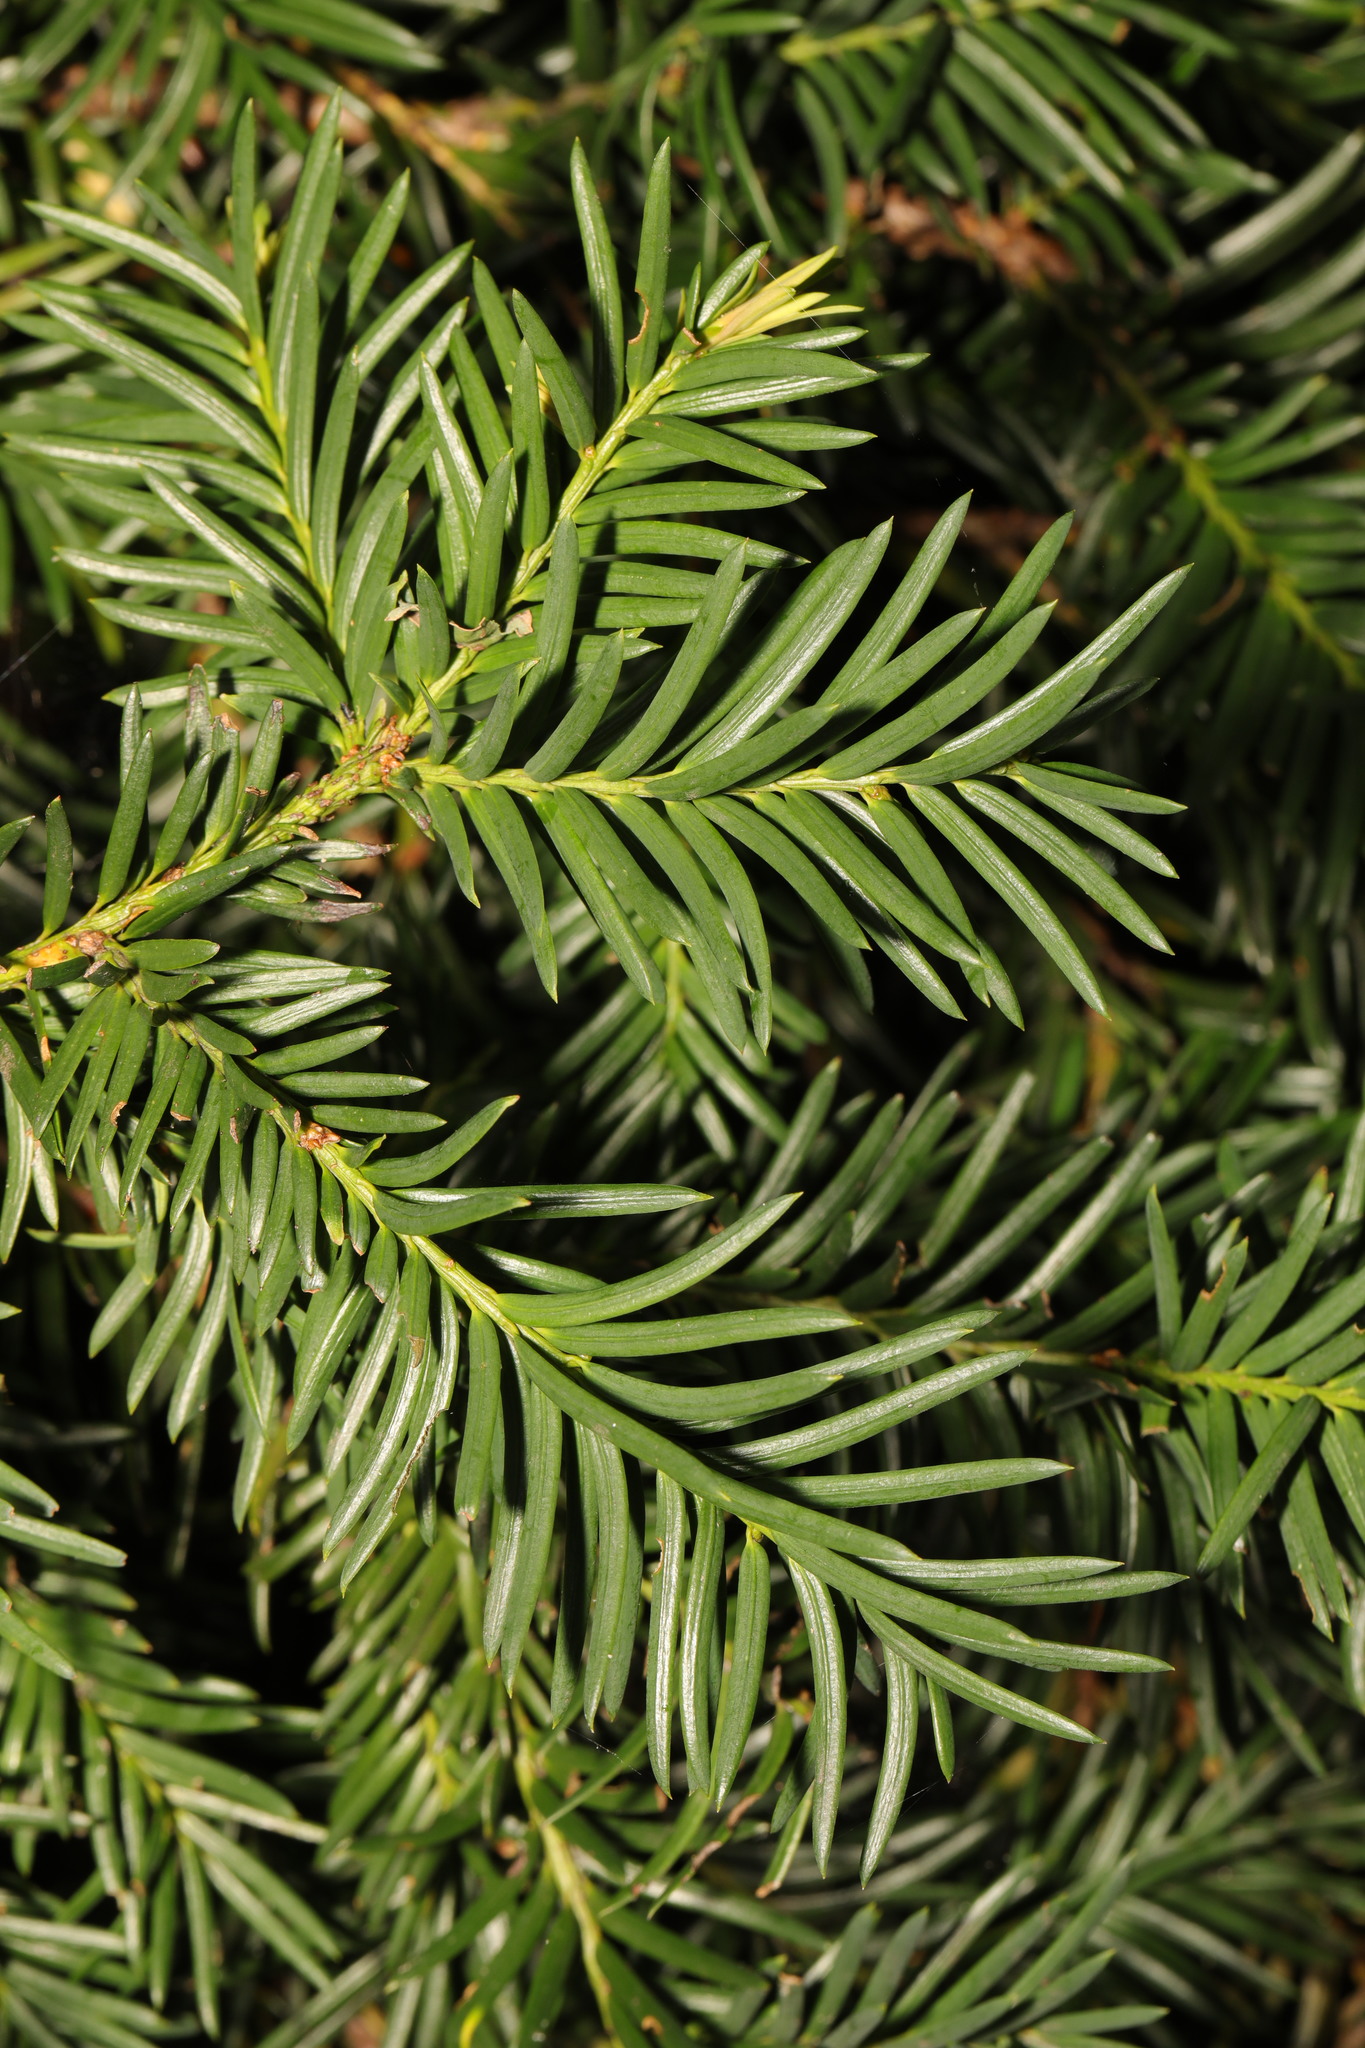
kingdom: Plantae
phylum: Tracheophyta
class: Pinopsida
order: Pinales
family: Taxaceae
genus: Taxus
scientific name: Taxus baccata
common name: Yew
